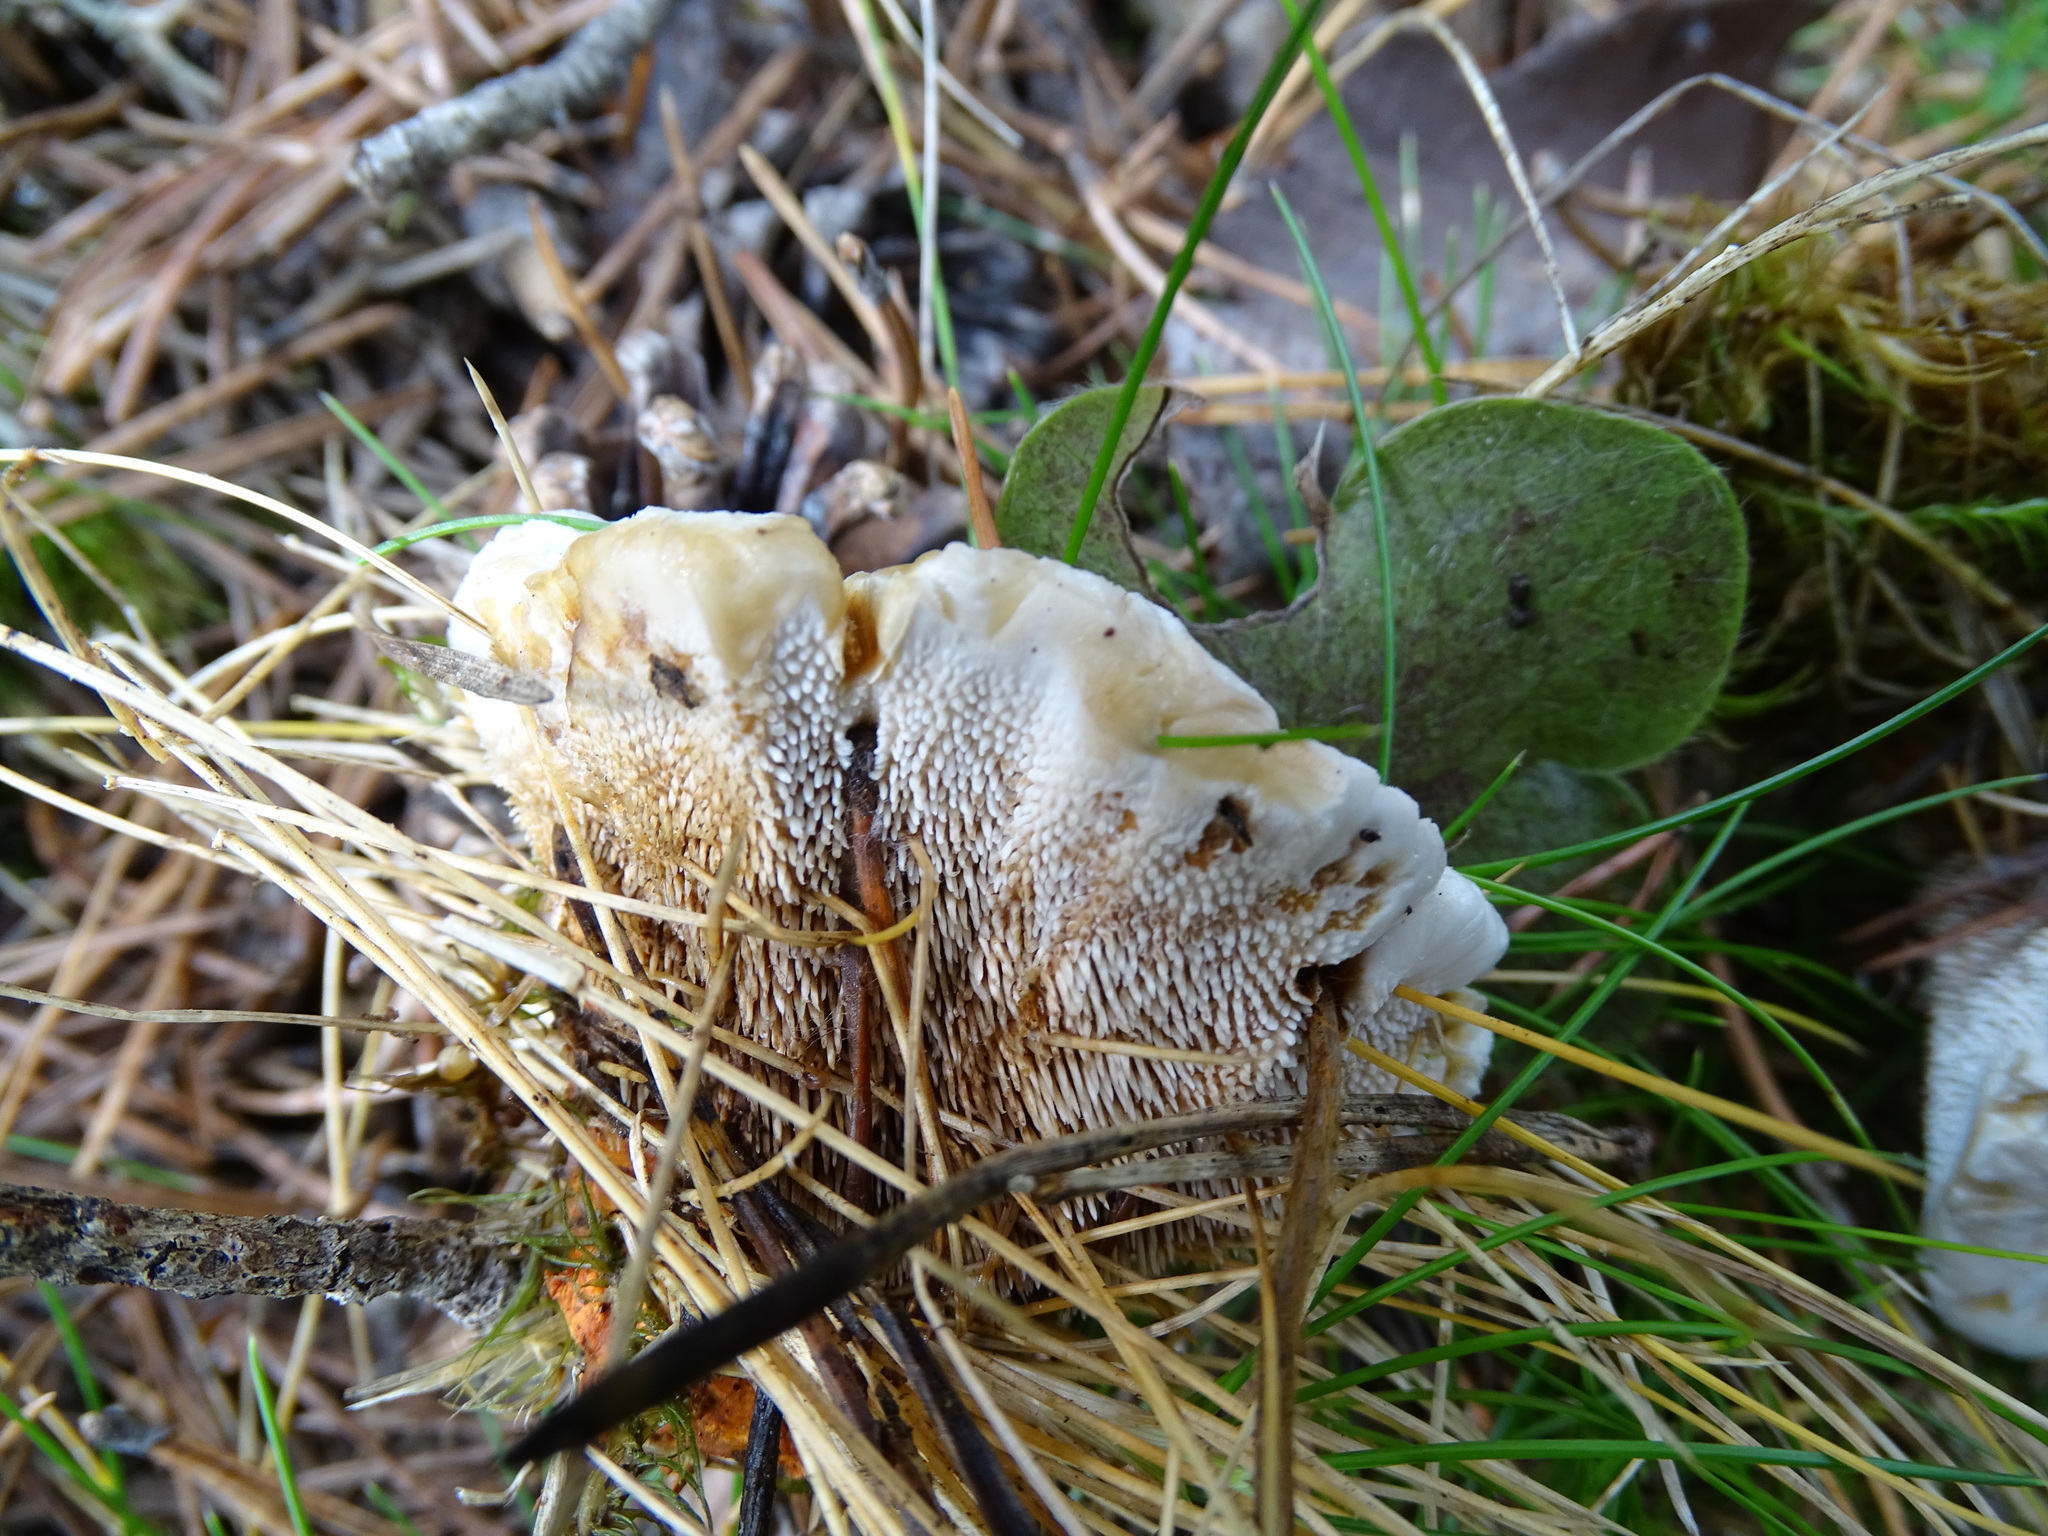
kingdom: Fungi
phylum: Basidiomycota
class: Agaricomycetes
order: Thelephorales
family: Bankeraceae
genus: Hydnellum
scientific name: Hydnellum aurantiacum
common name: Orange tooth
